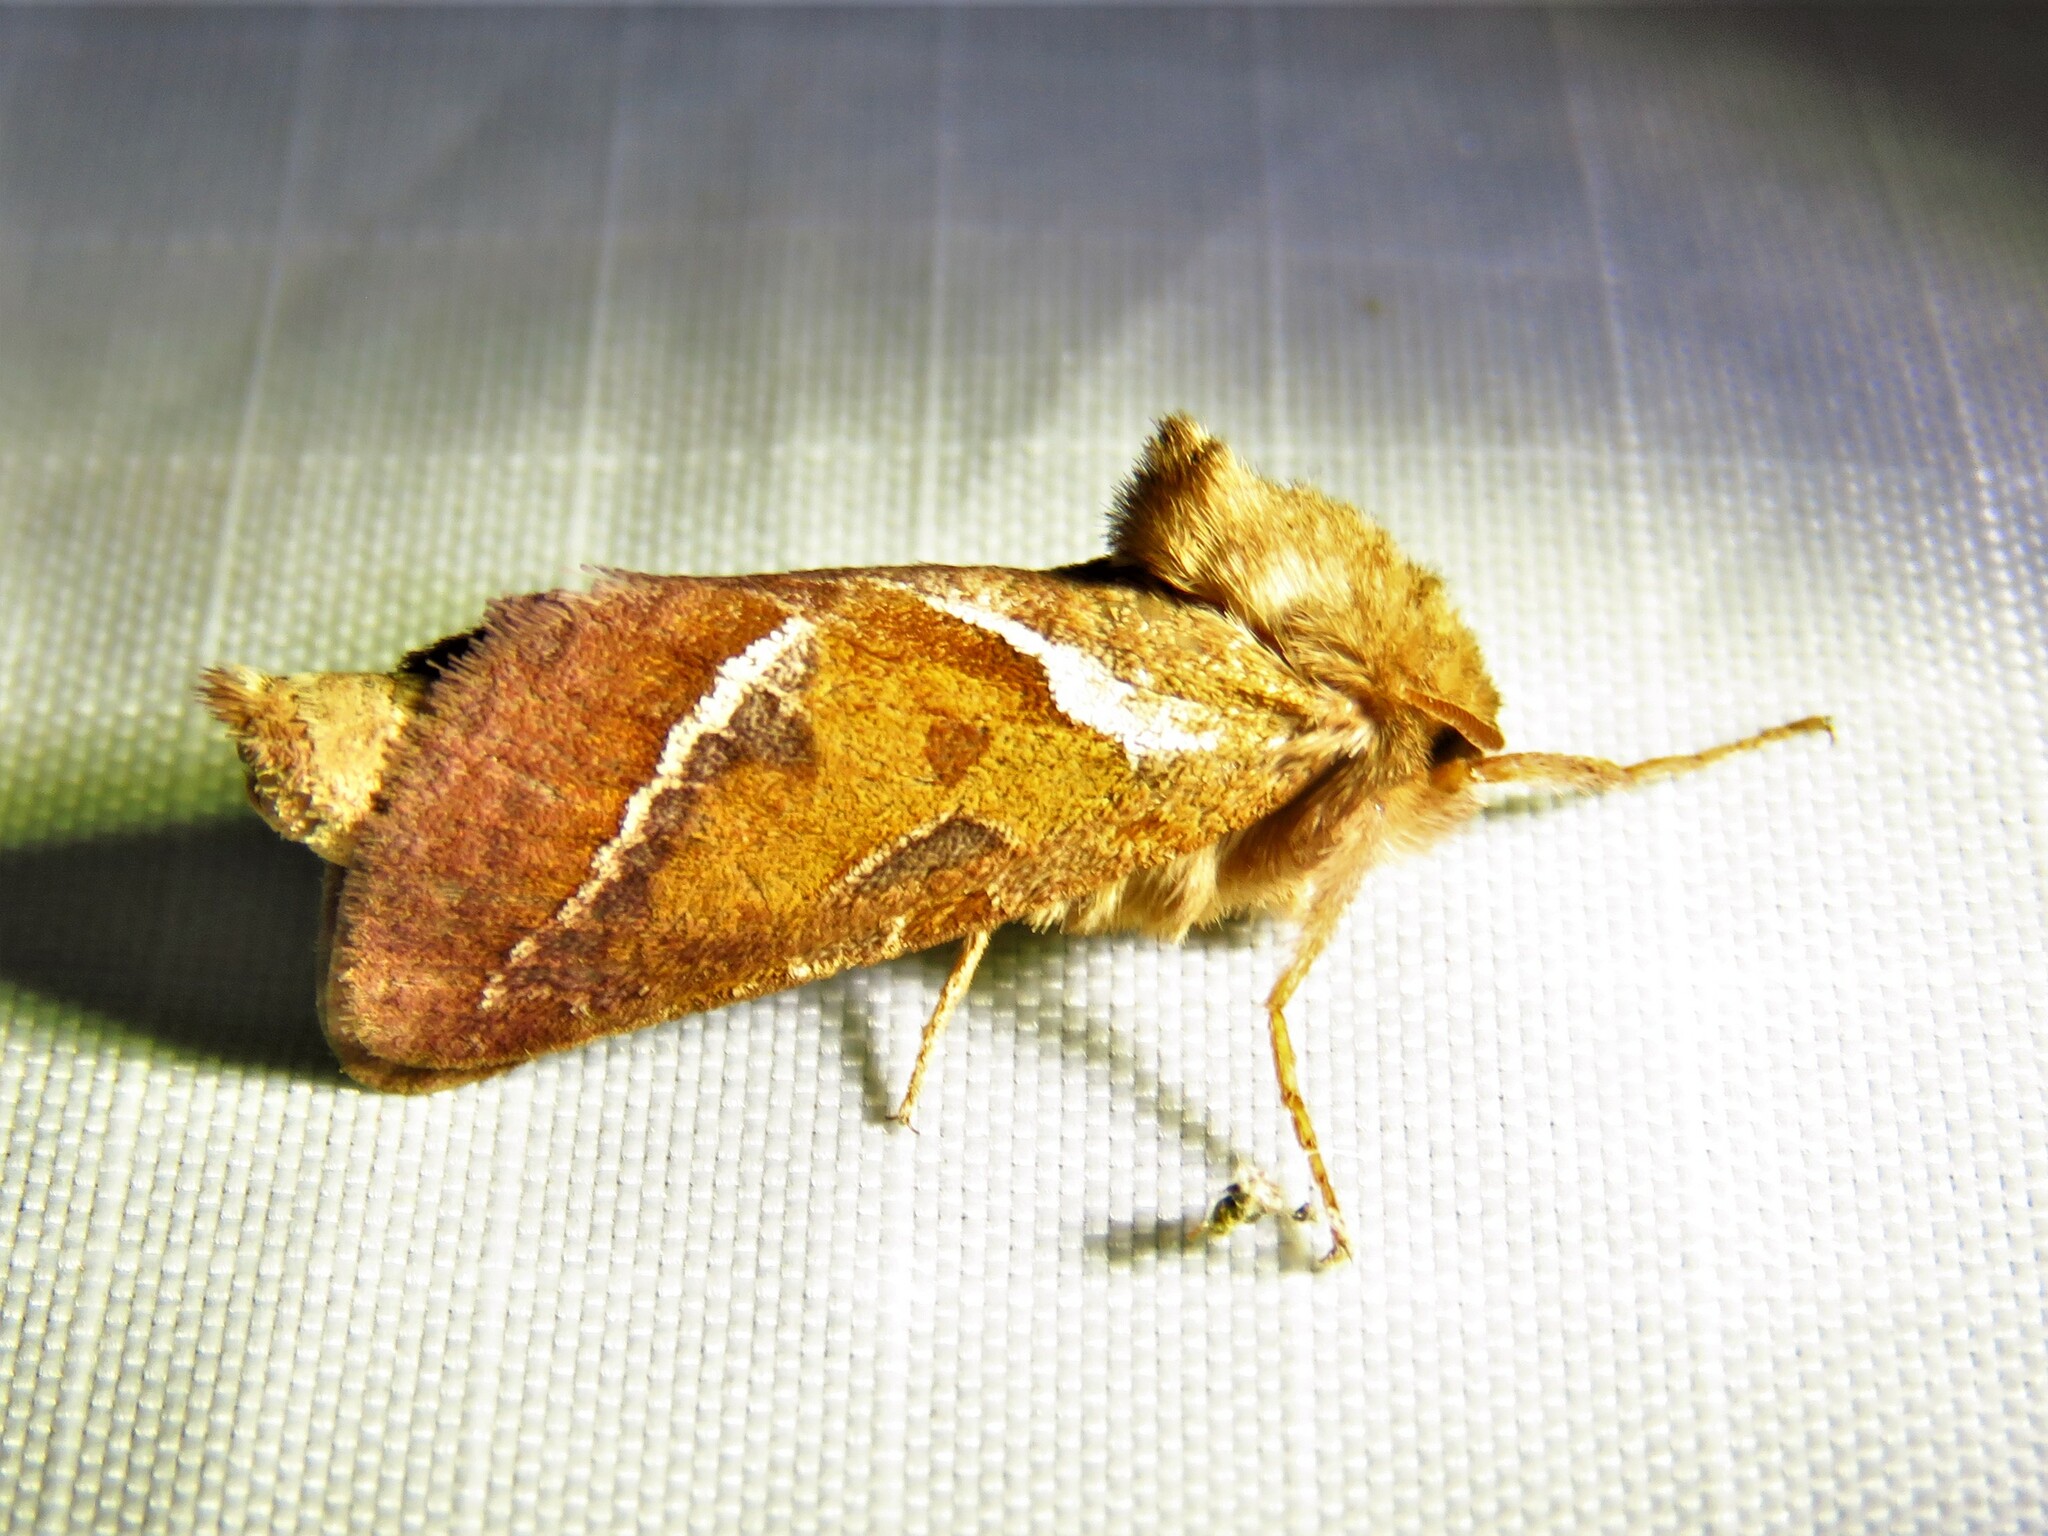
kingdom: Animalia
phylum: Arthropoda
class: Insecta
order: Lepidoptera
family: Hepialidae
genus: Triodia
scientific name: Triodia sylvina
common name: Orange swift
